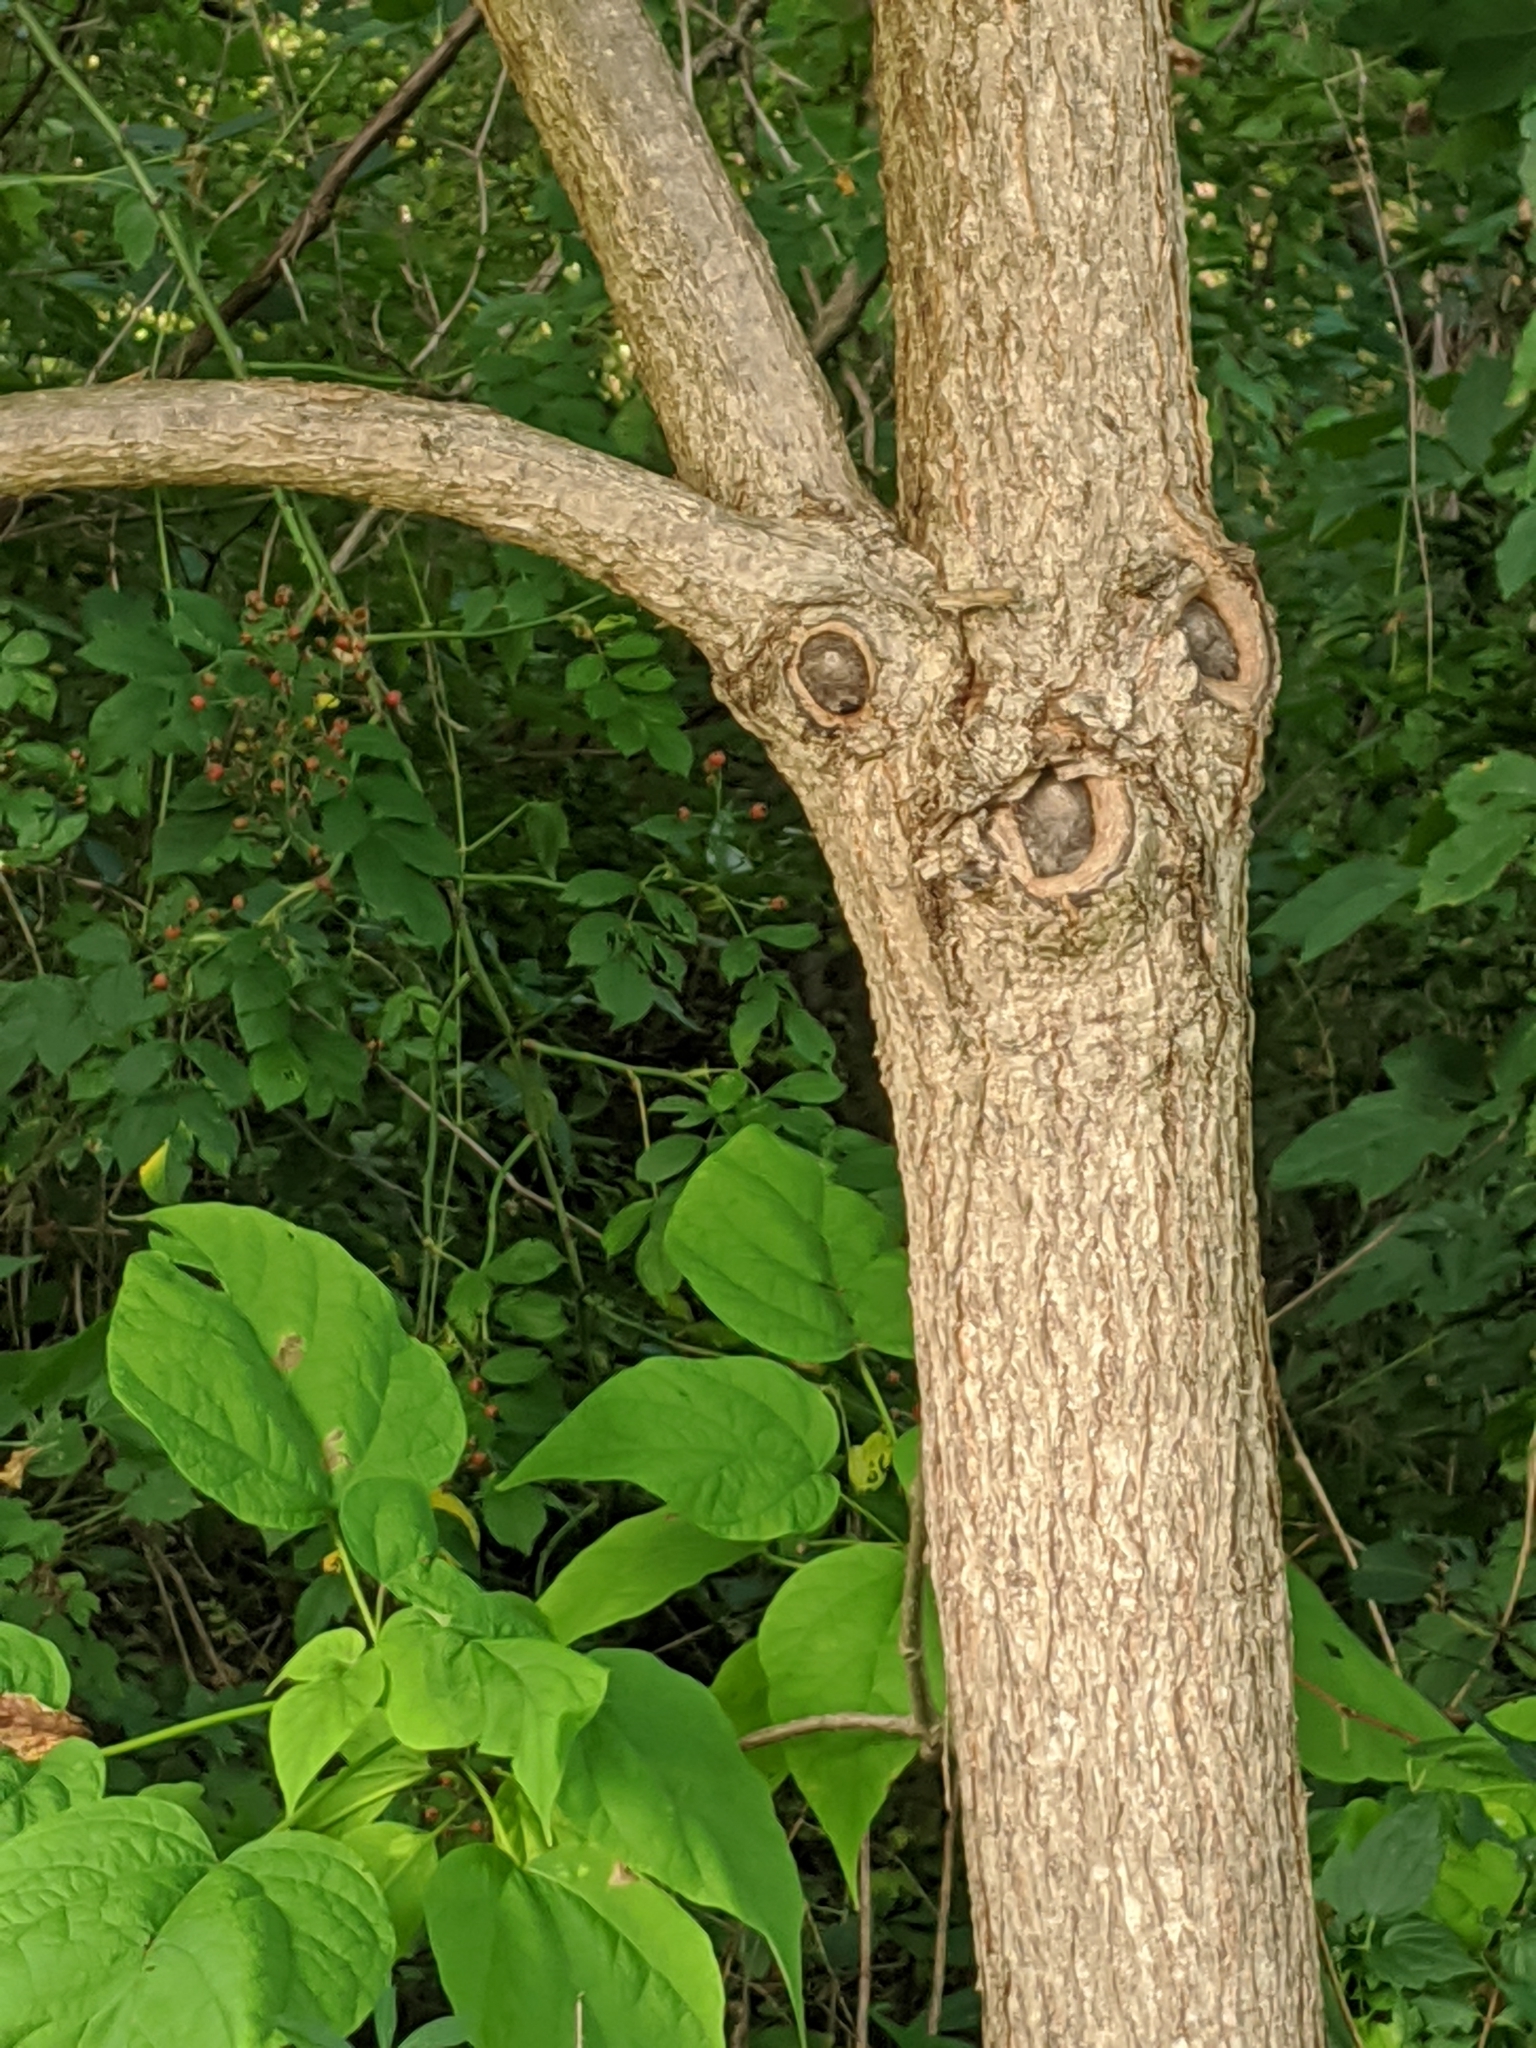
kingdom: Plantae
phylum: Tracheophyta
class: Magnoliopsida
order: Lamiales
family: Bignoniaceae
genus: Catalpa
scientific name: Catalpa speciosa
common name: Northern catalpa
